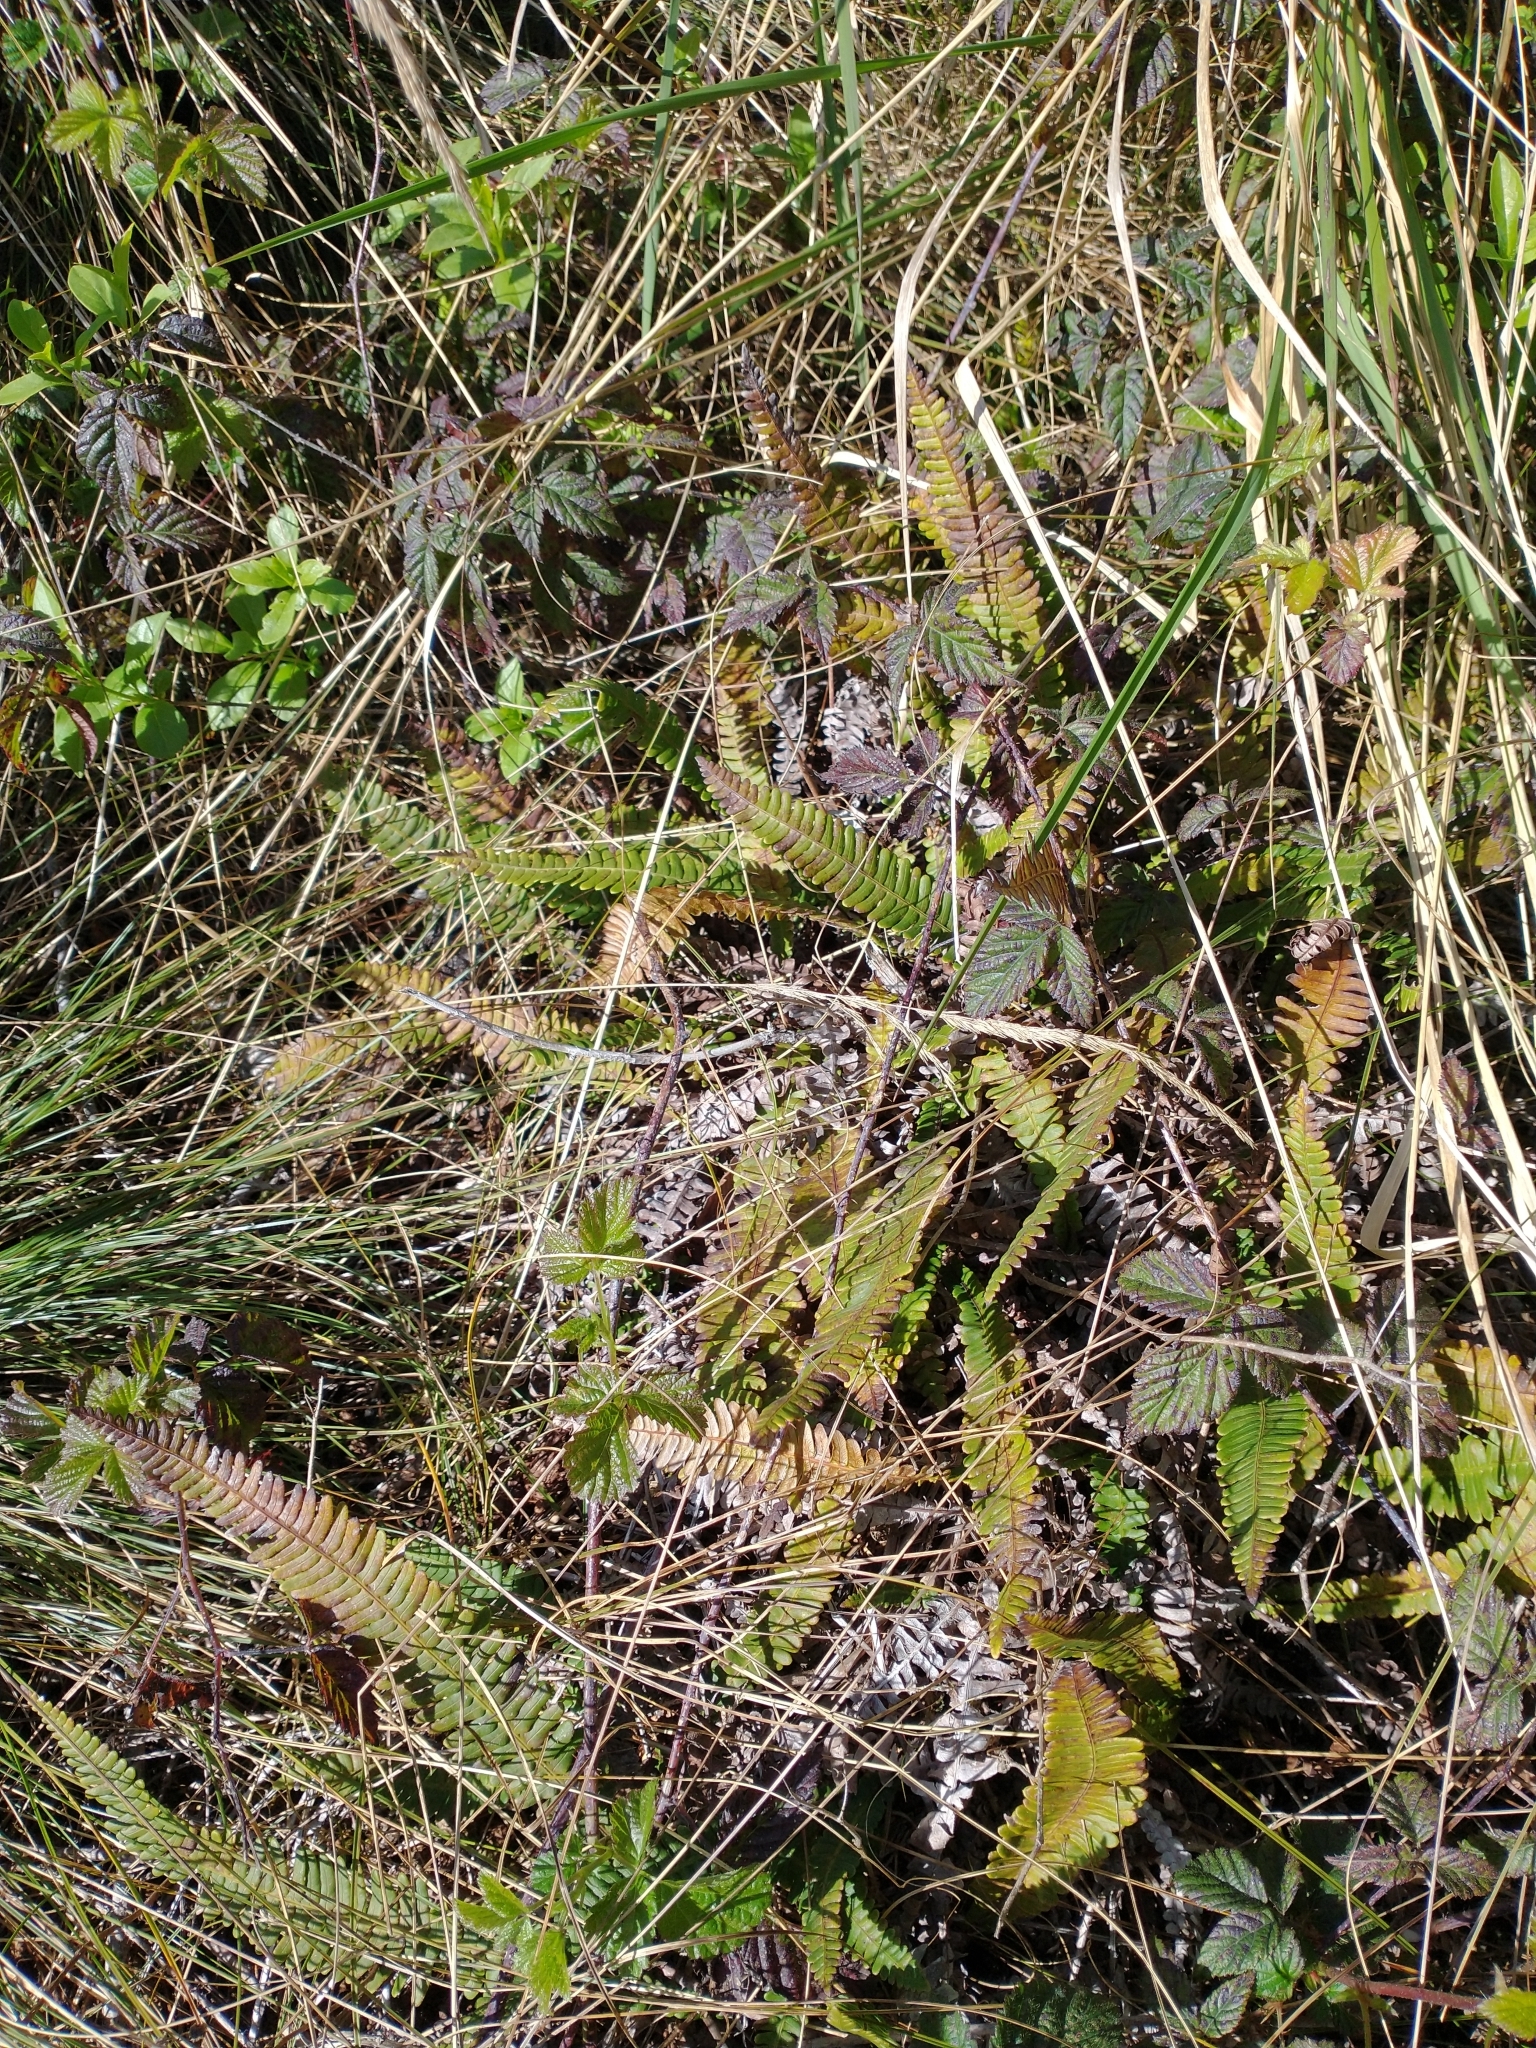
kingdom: Plantae
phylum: Tracheophyta
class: Polypodiopsida
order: Polypodiales
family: Blechnaceae
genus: Struthiopteris
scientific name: Struthiopteris spicant
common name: Deer fern
